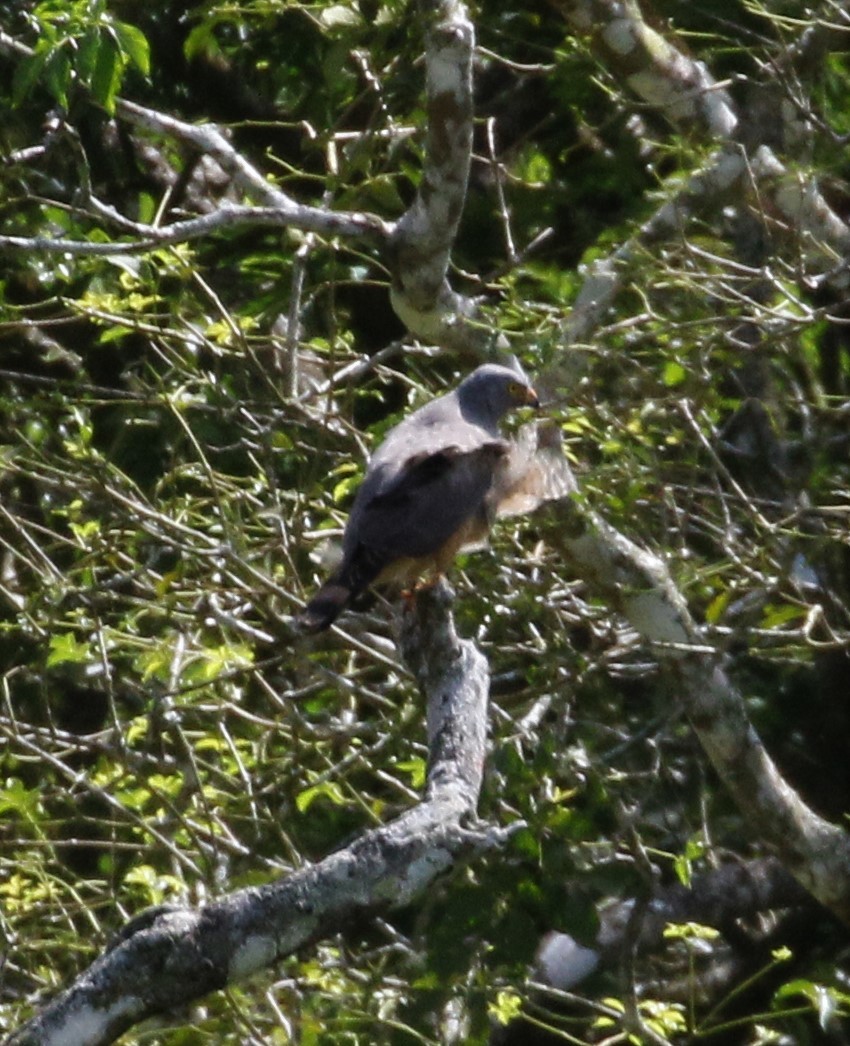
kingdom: Animalia
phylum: Chordata
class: Aves
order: Accipitriformes
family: Accipitridae
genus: Rupornis
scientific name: Rupornis magnirostris
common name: Roadside hawk
